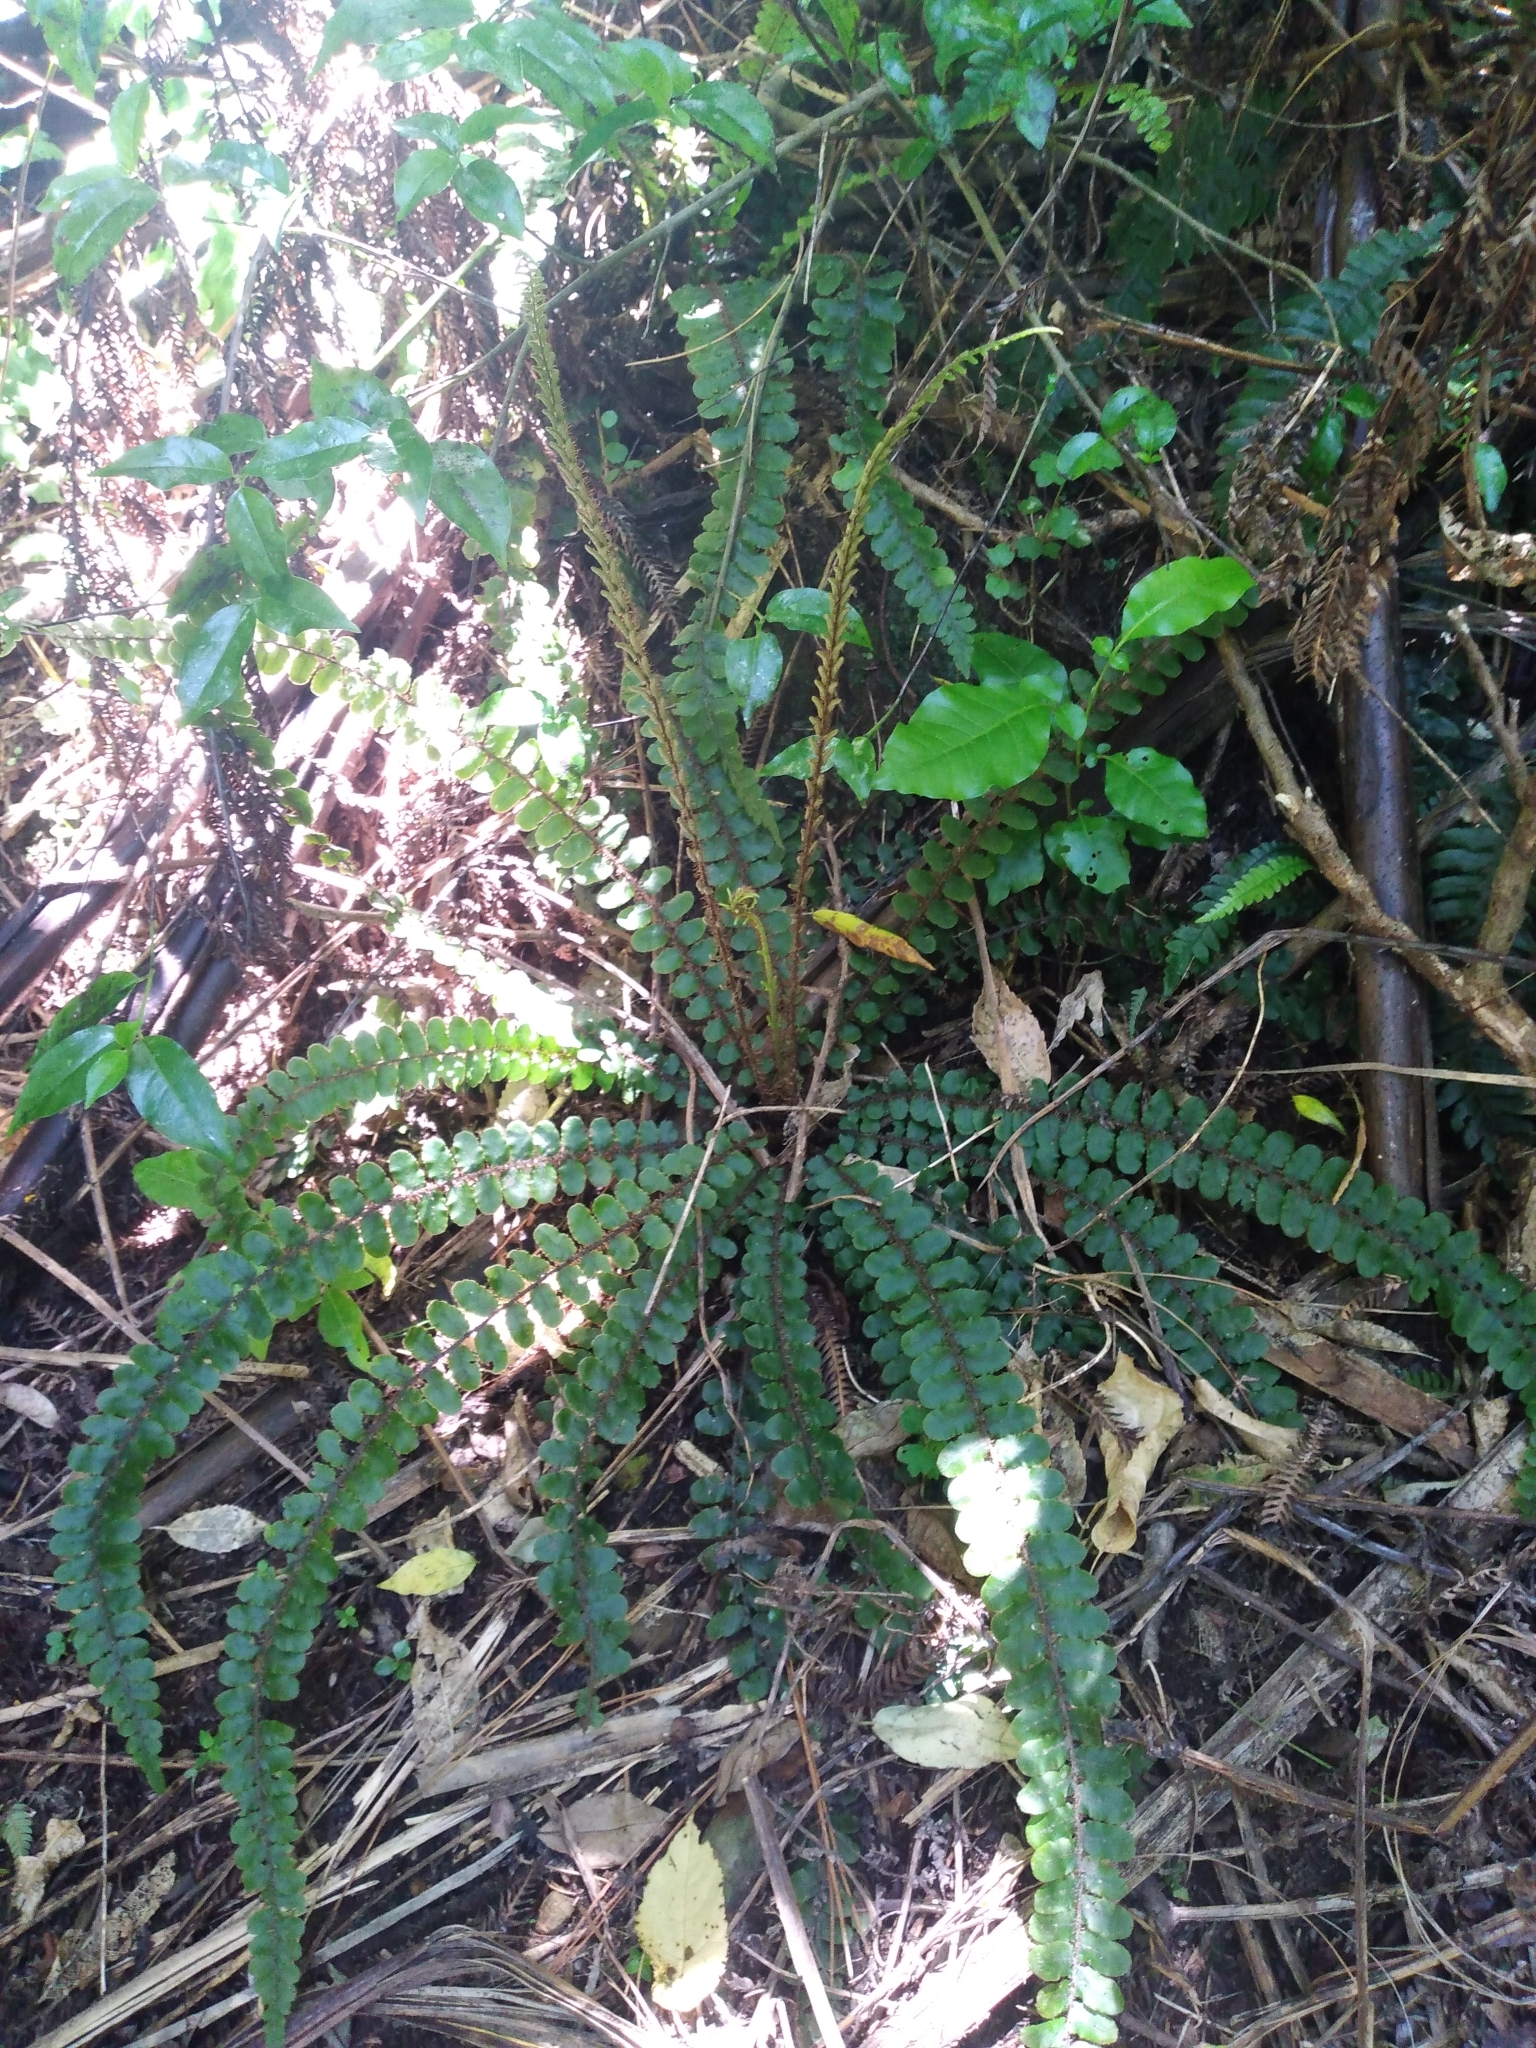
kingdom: Plantae
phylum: Tracheophyta
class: Polypodiopsida
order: Polypodiales
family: Blechnaceae
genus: Cranfillia
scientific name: Cranfillia fluviatilis
